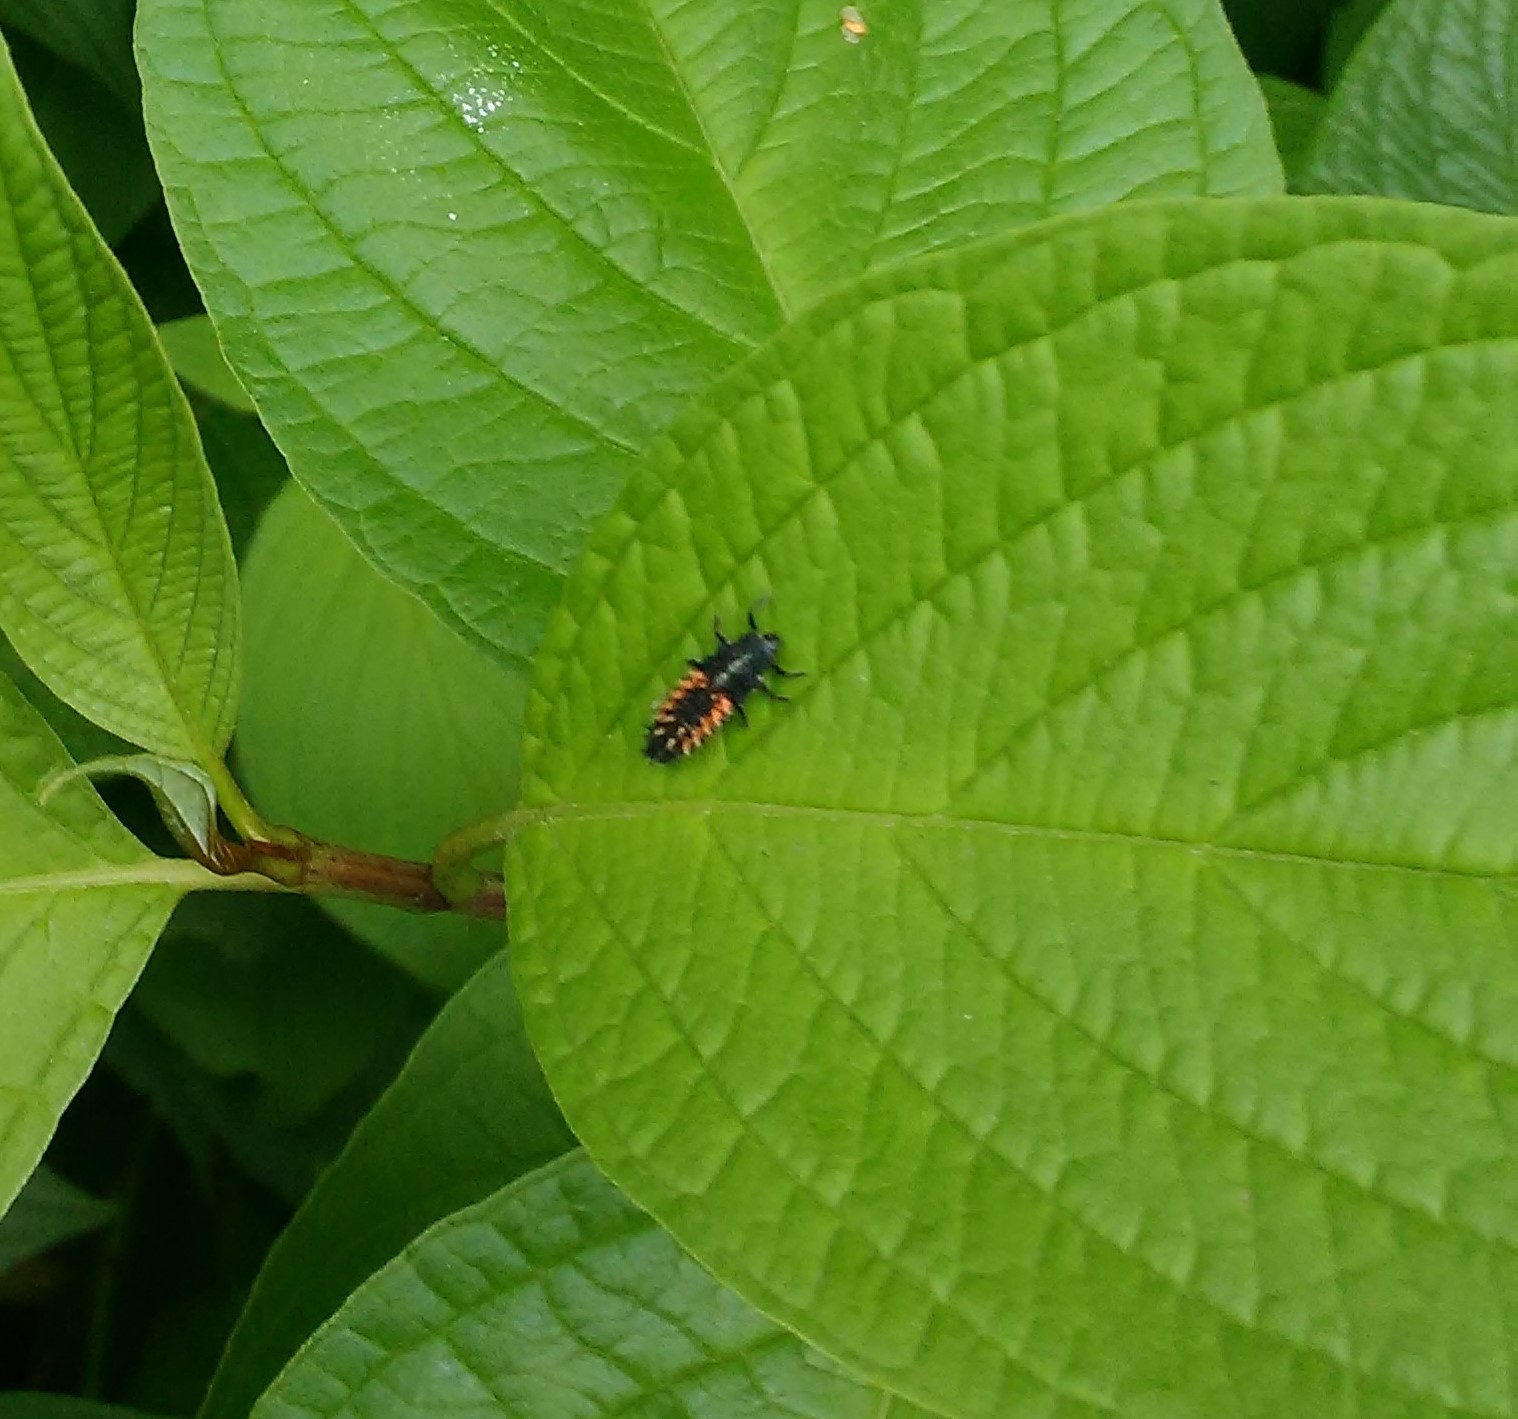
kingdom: Animalia
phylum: Arthropoda
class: Insecta
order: Coleoptera
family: Coccinellidae
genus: Harmonia
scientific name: Harmonia axyridis
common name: Harlequin ladybird
